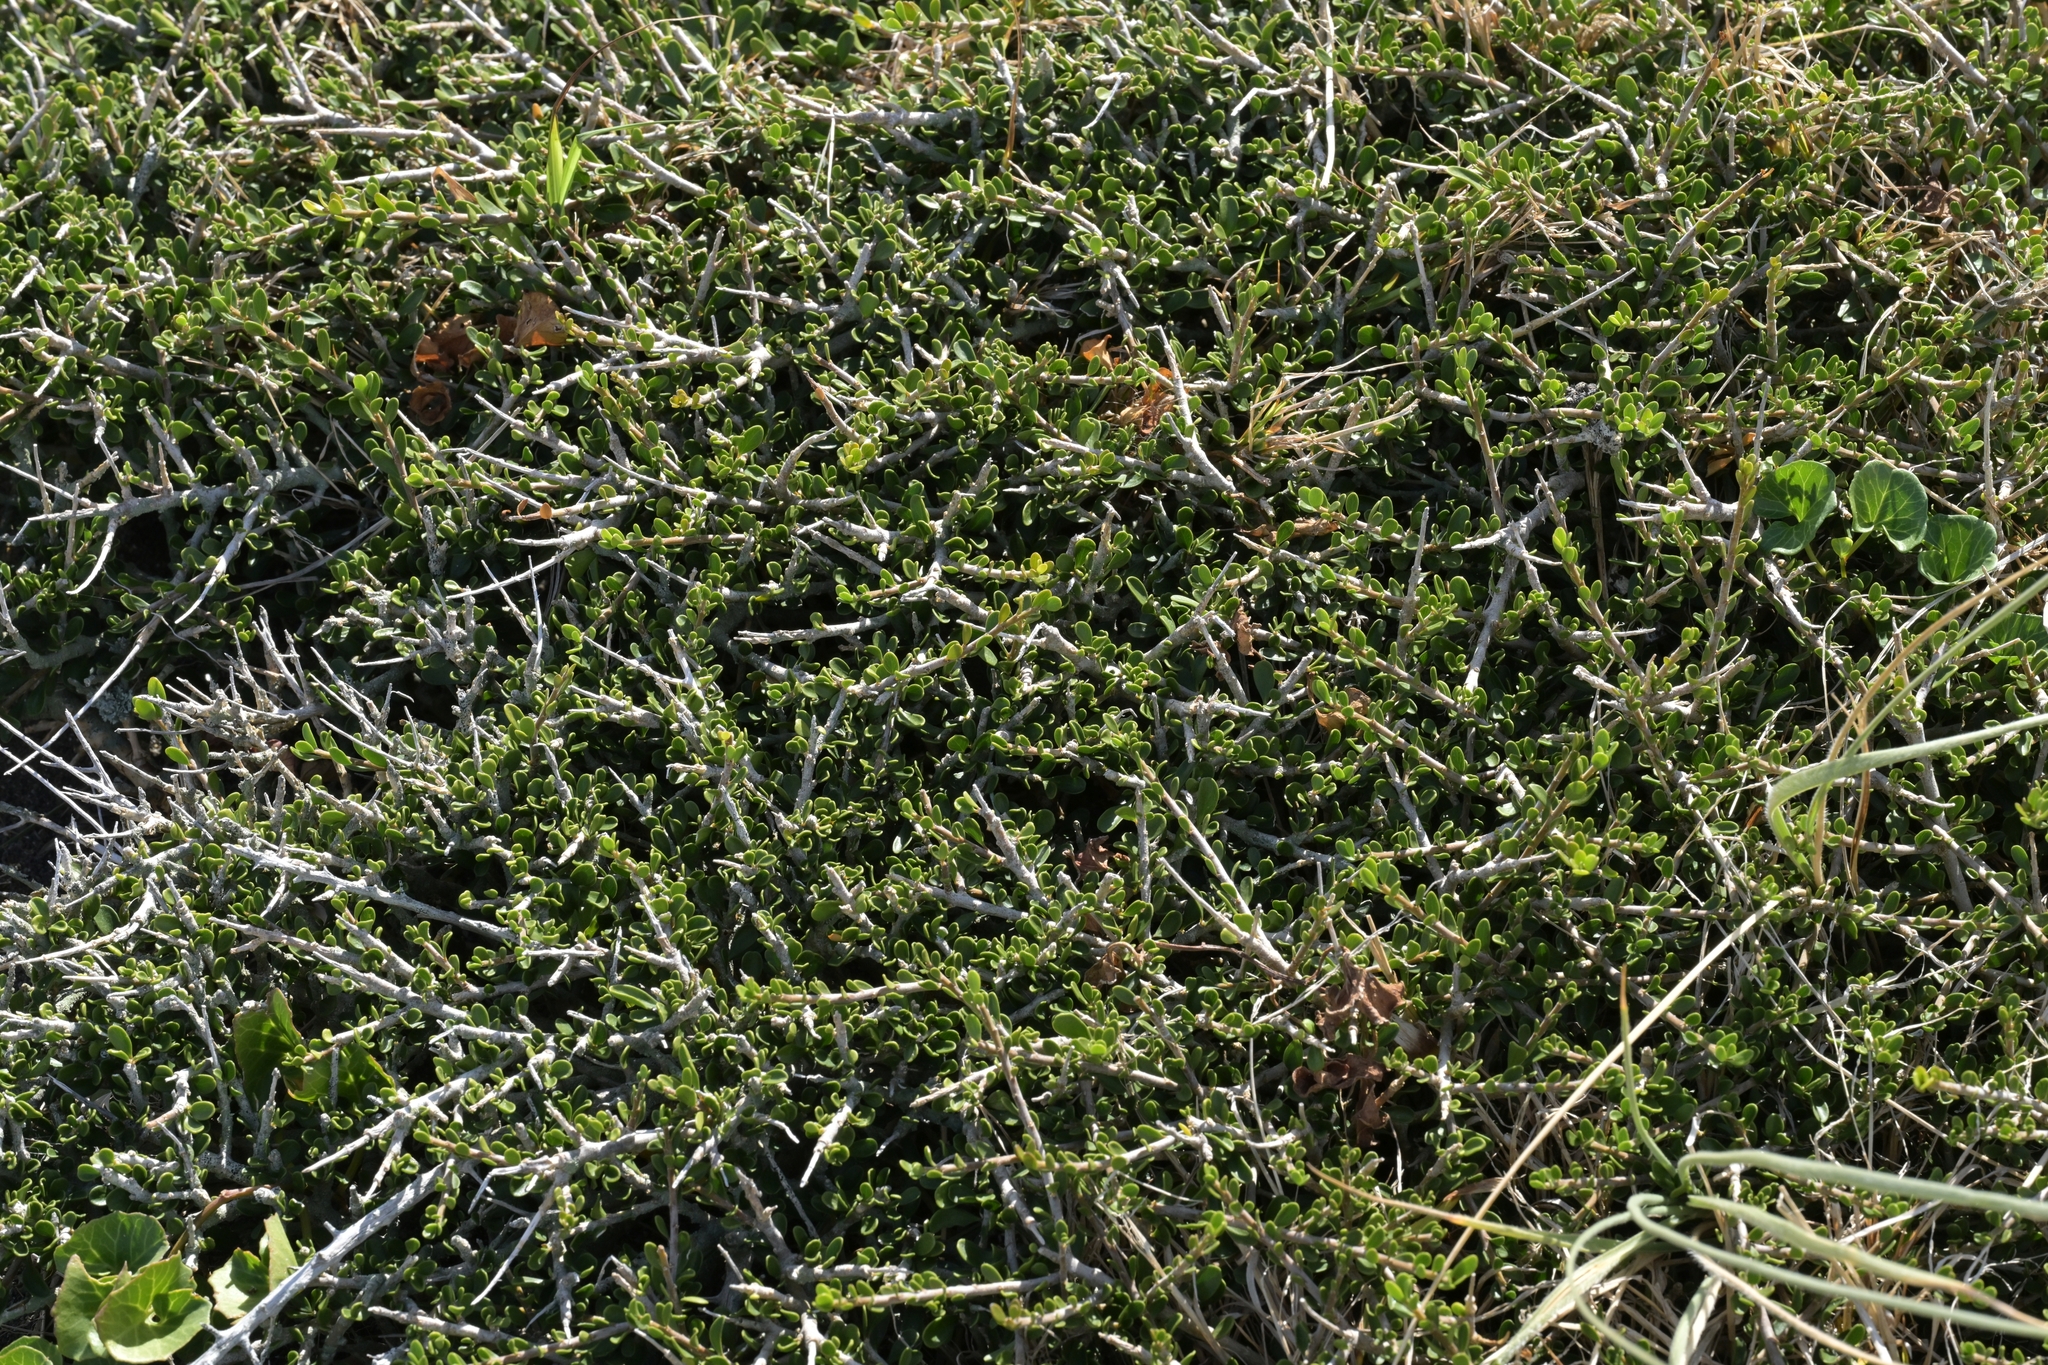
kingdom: Plantae
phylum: Tracheophyta
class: Magnoliopsida
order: Malpighiales
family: Violaceae
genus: Melicytus
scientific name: Melicytus crassifolius
